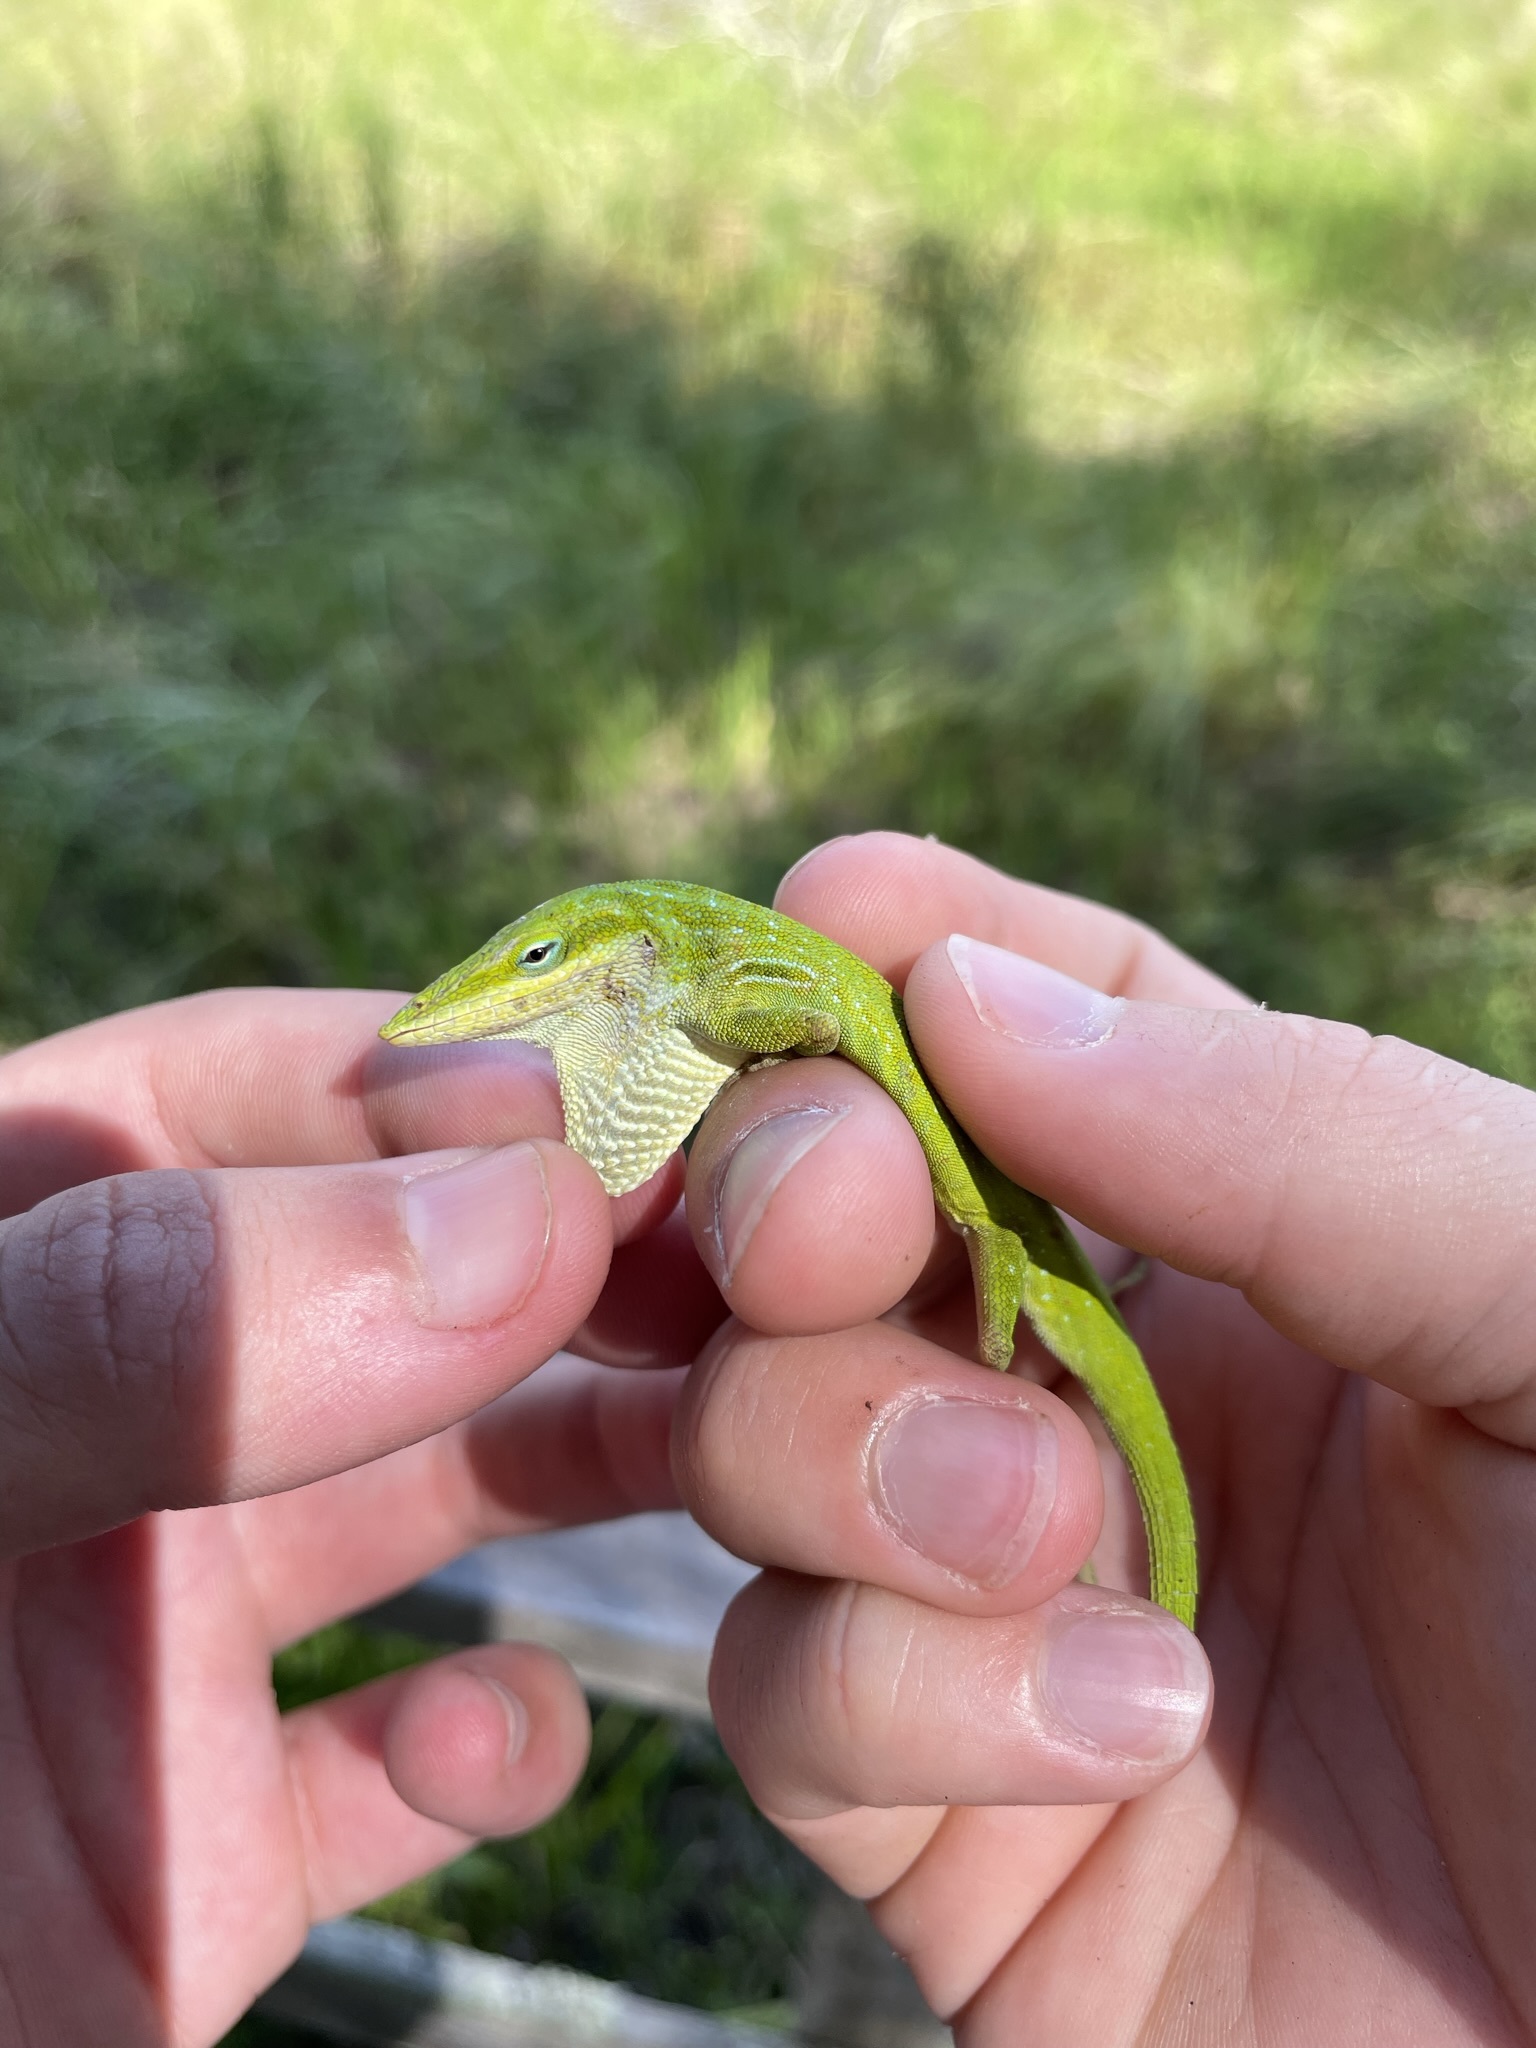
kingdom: Animalia
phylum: Chordata
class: Squamata
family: Dactyloidae
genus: Anolis
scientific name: Anolis carolinensis
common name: Green anole
